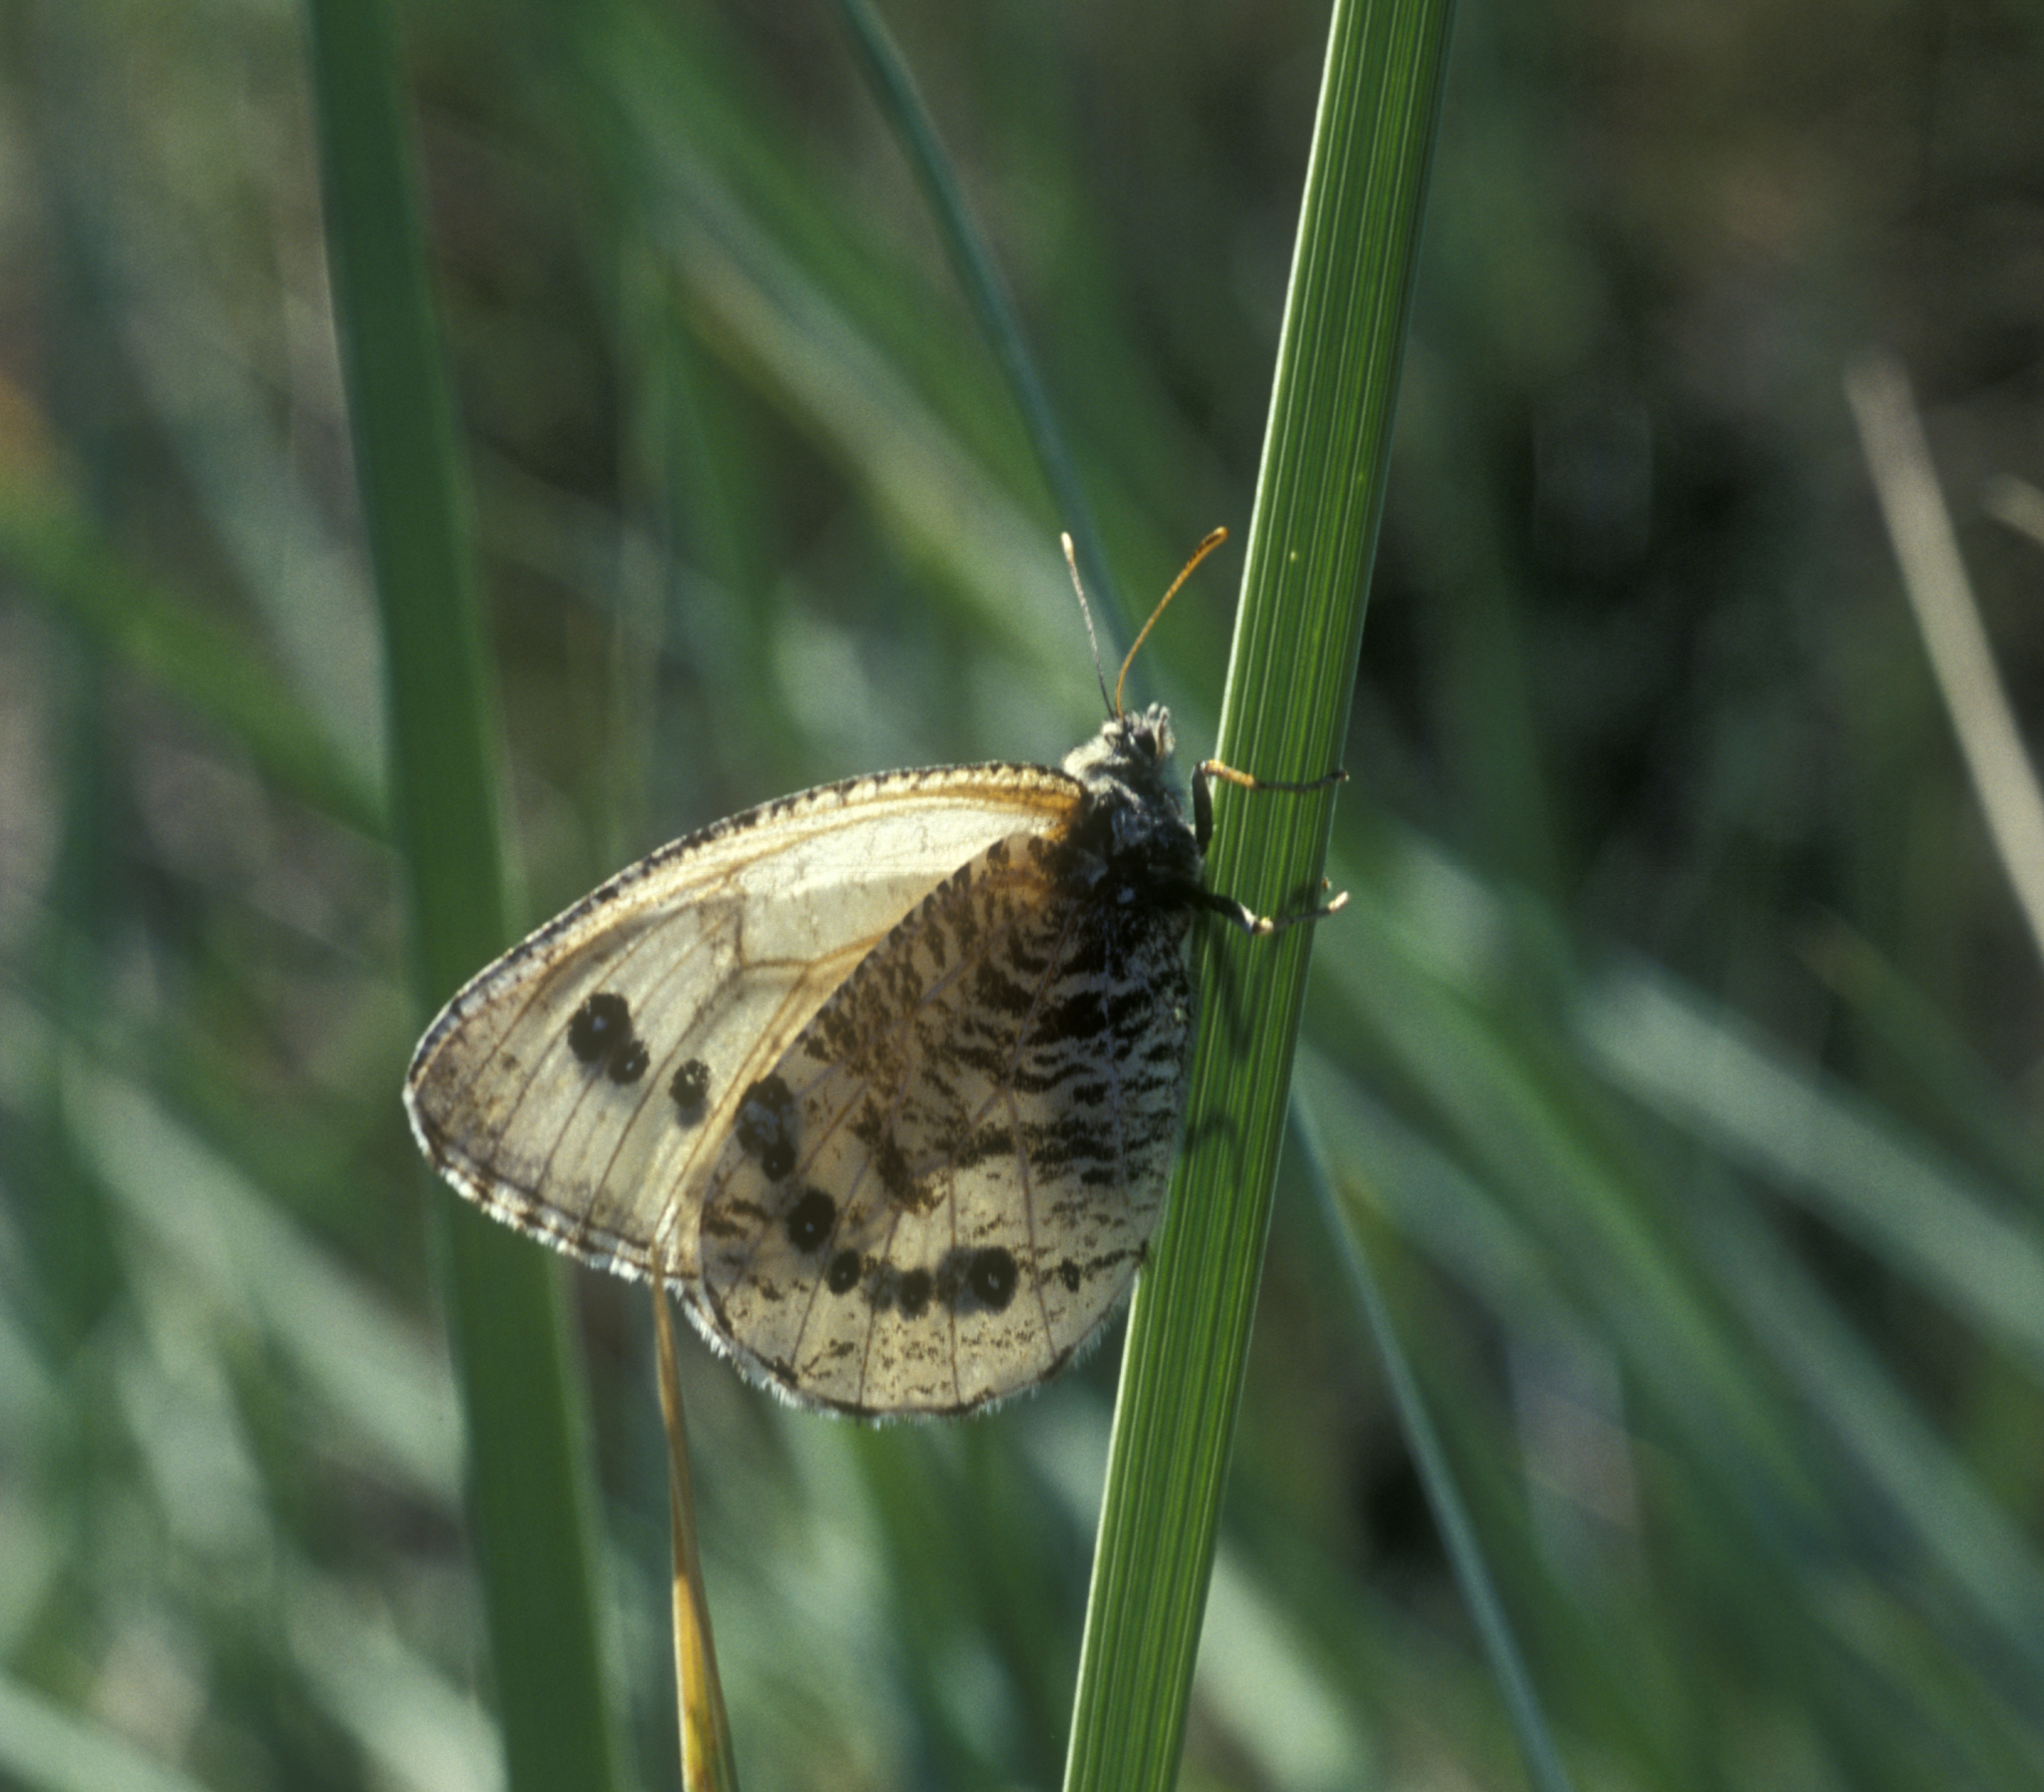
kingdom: Animalia
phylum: Arthropoda
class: Insecta
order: Lepidoptera
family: Nymphalidae
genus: Oeneis
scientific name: Oeneis diluta
